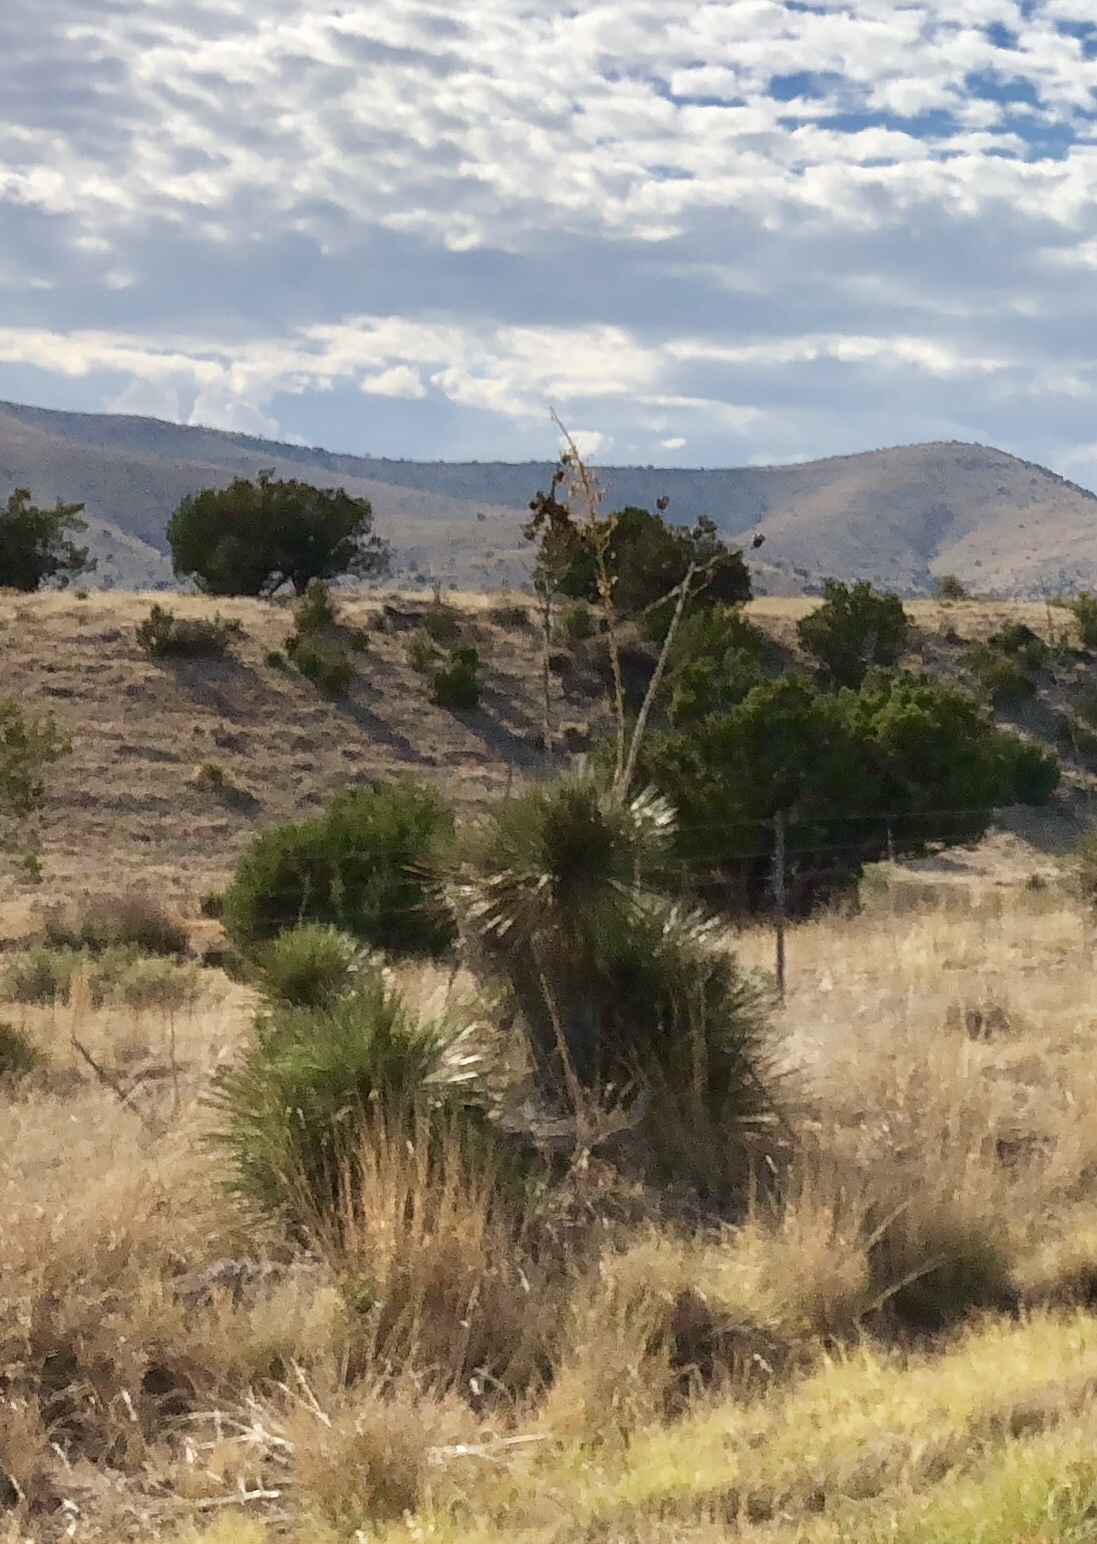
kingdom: Plantae
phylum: Tracheophyta
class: Liliopsida
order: Asparagales
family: Asparagaceae
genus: Yucca
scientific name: Yucca elata
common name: Palmella
